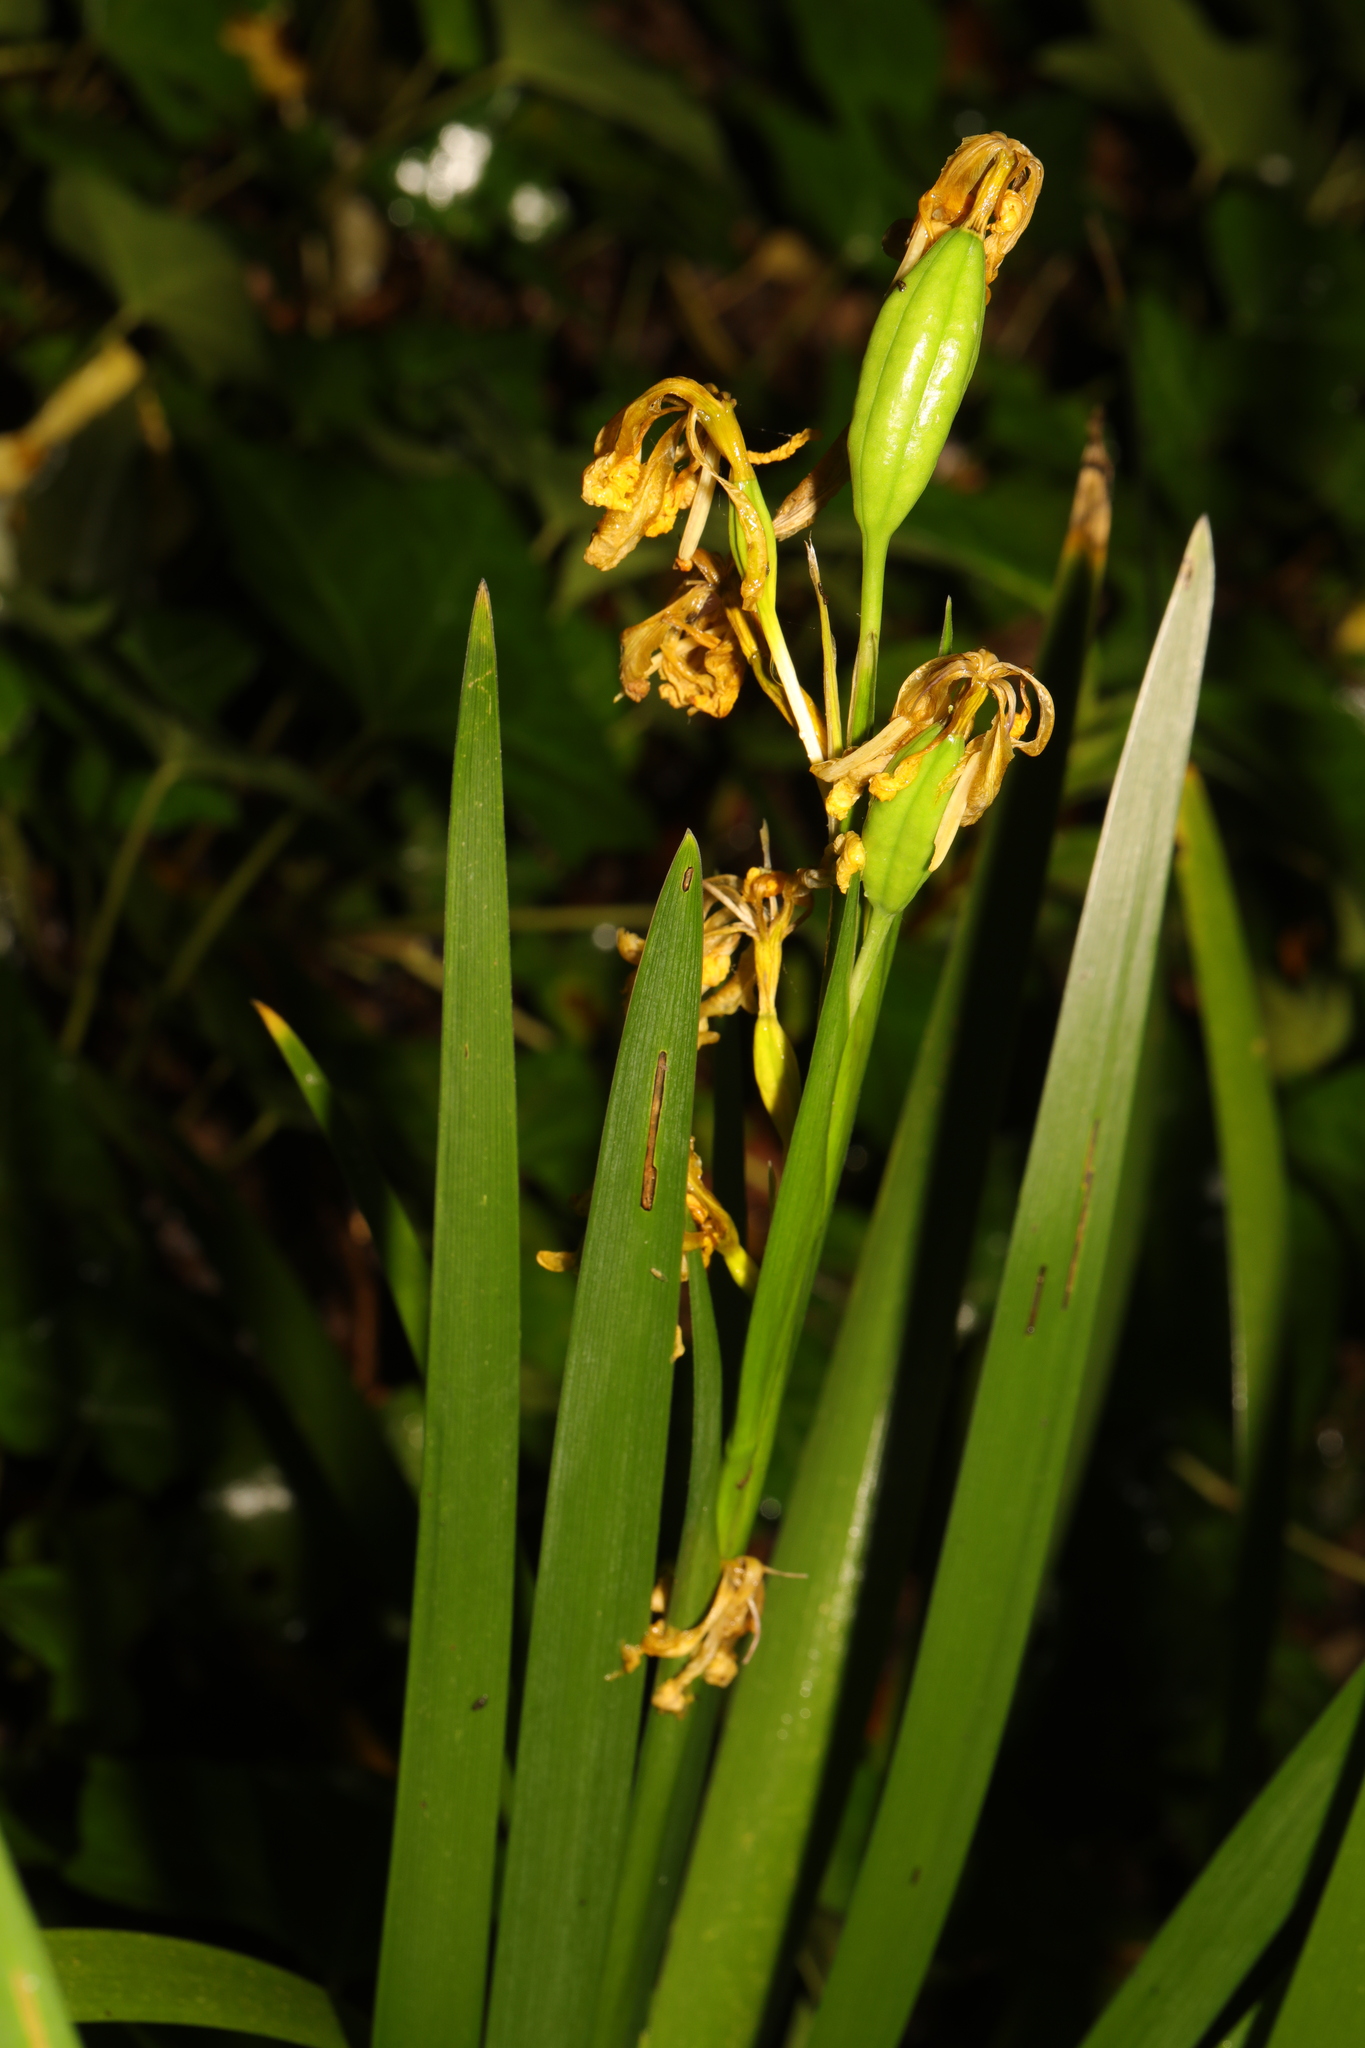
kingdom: Plantae
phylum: Tracheophyta
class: Liliopsida
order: Asparagales
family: Iridaceae
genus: Iris
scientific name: Iris foetidissima
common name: Stinking iris
